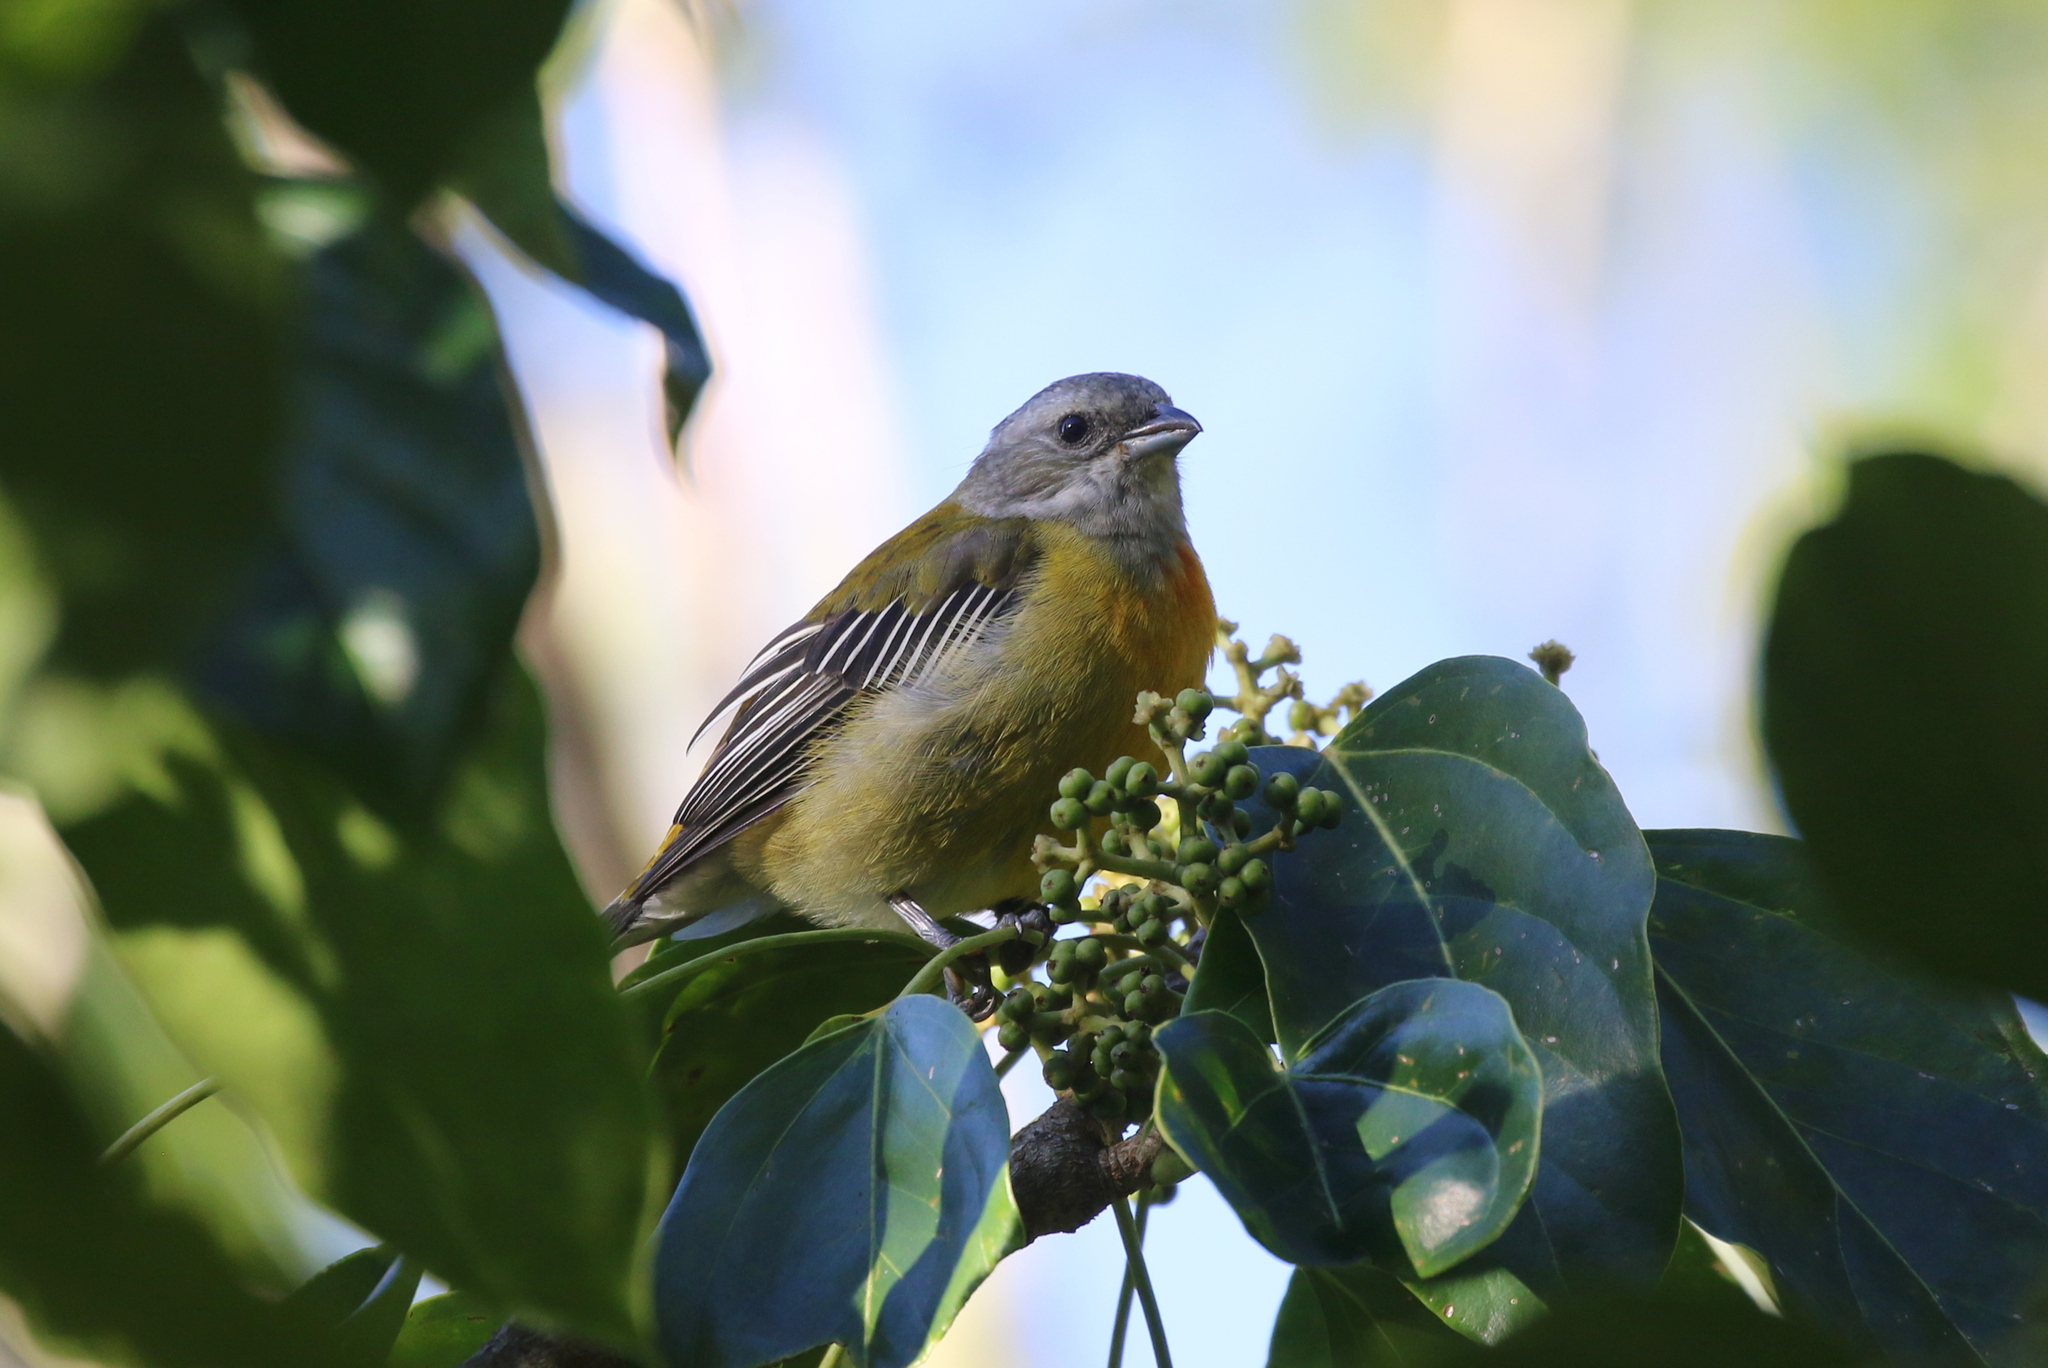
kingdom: Animalia
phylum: Chordata
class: Aves
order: Passeriformes
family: Spindalidae
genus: Spindalis
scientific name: Spindalis nigricephala
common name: Jamaican spindalis
